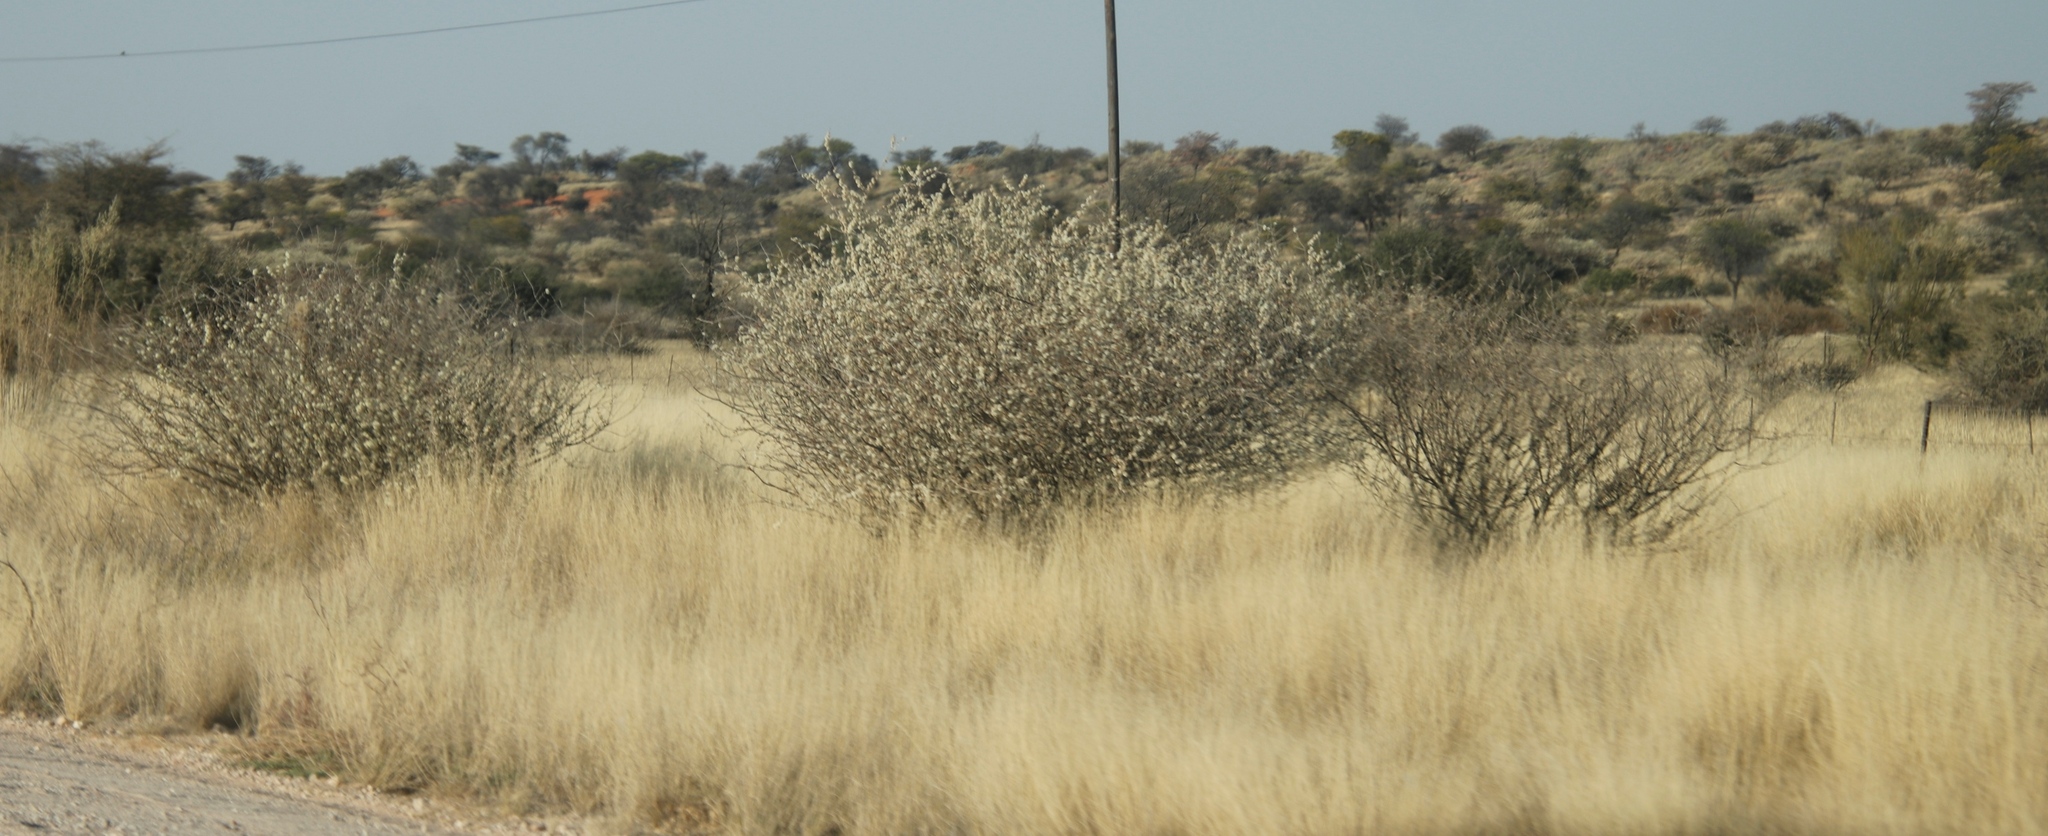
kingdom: Plantae
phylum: Tracheophyta
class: Magnoliopsida
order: Fabales
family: Fabaceae
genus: Senegalia
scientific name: Senegalia mellifera
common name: Hookthorn
